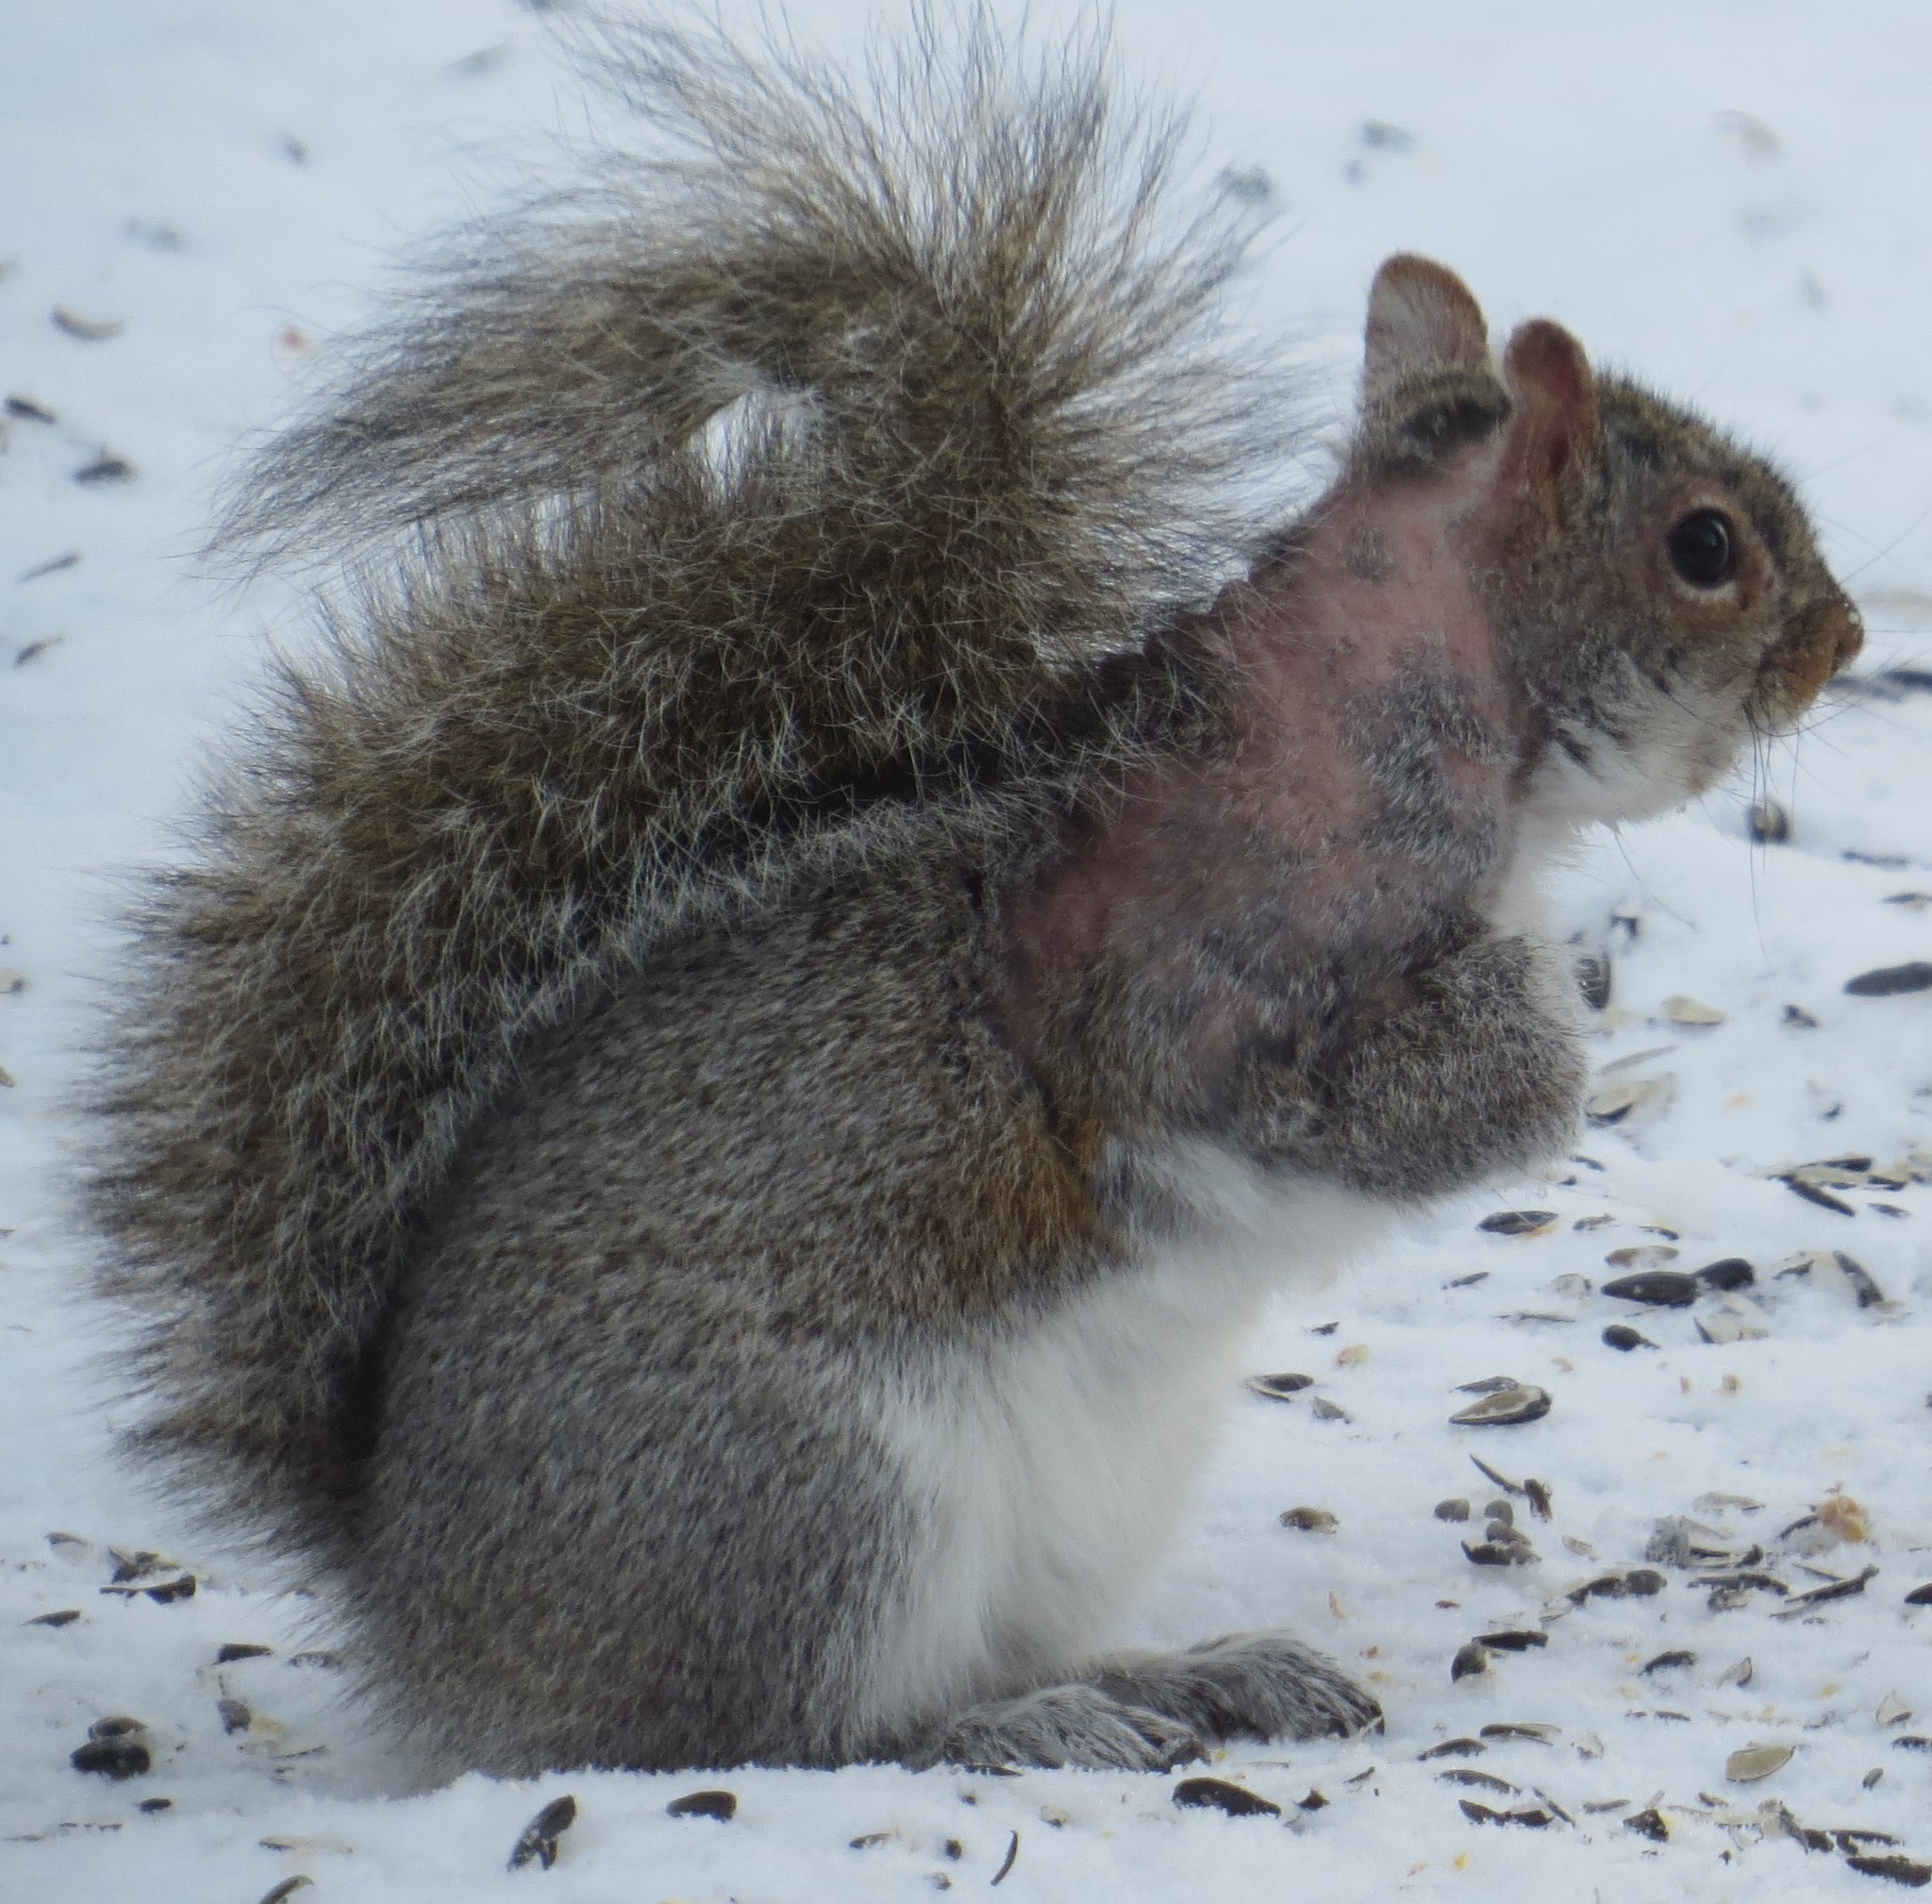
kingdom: Animalia
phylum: Chordata
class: Mammalia
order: Rodentia
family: Sciuridae
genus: Sciurus
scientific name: Sciurus carolinensis
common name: Eastern gray squirrel
